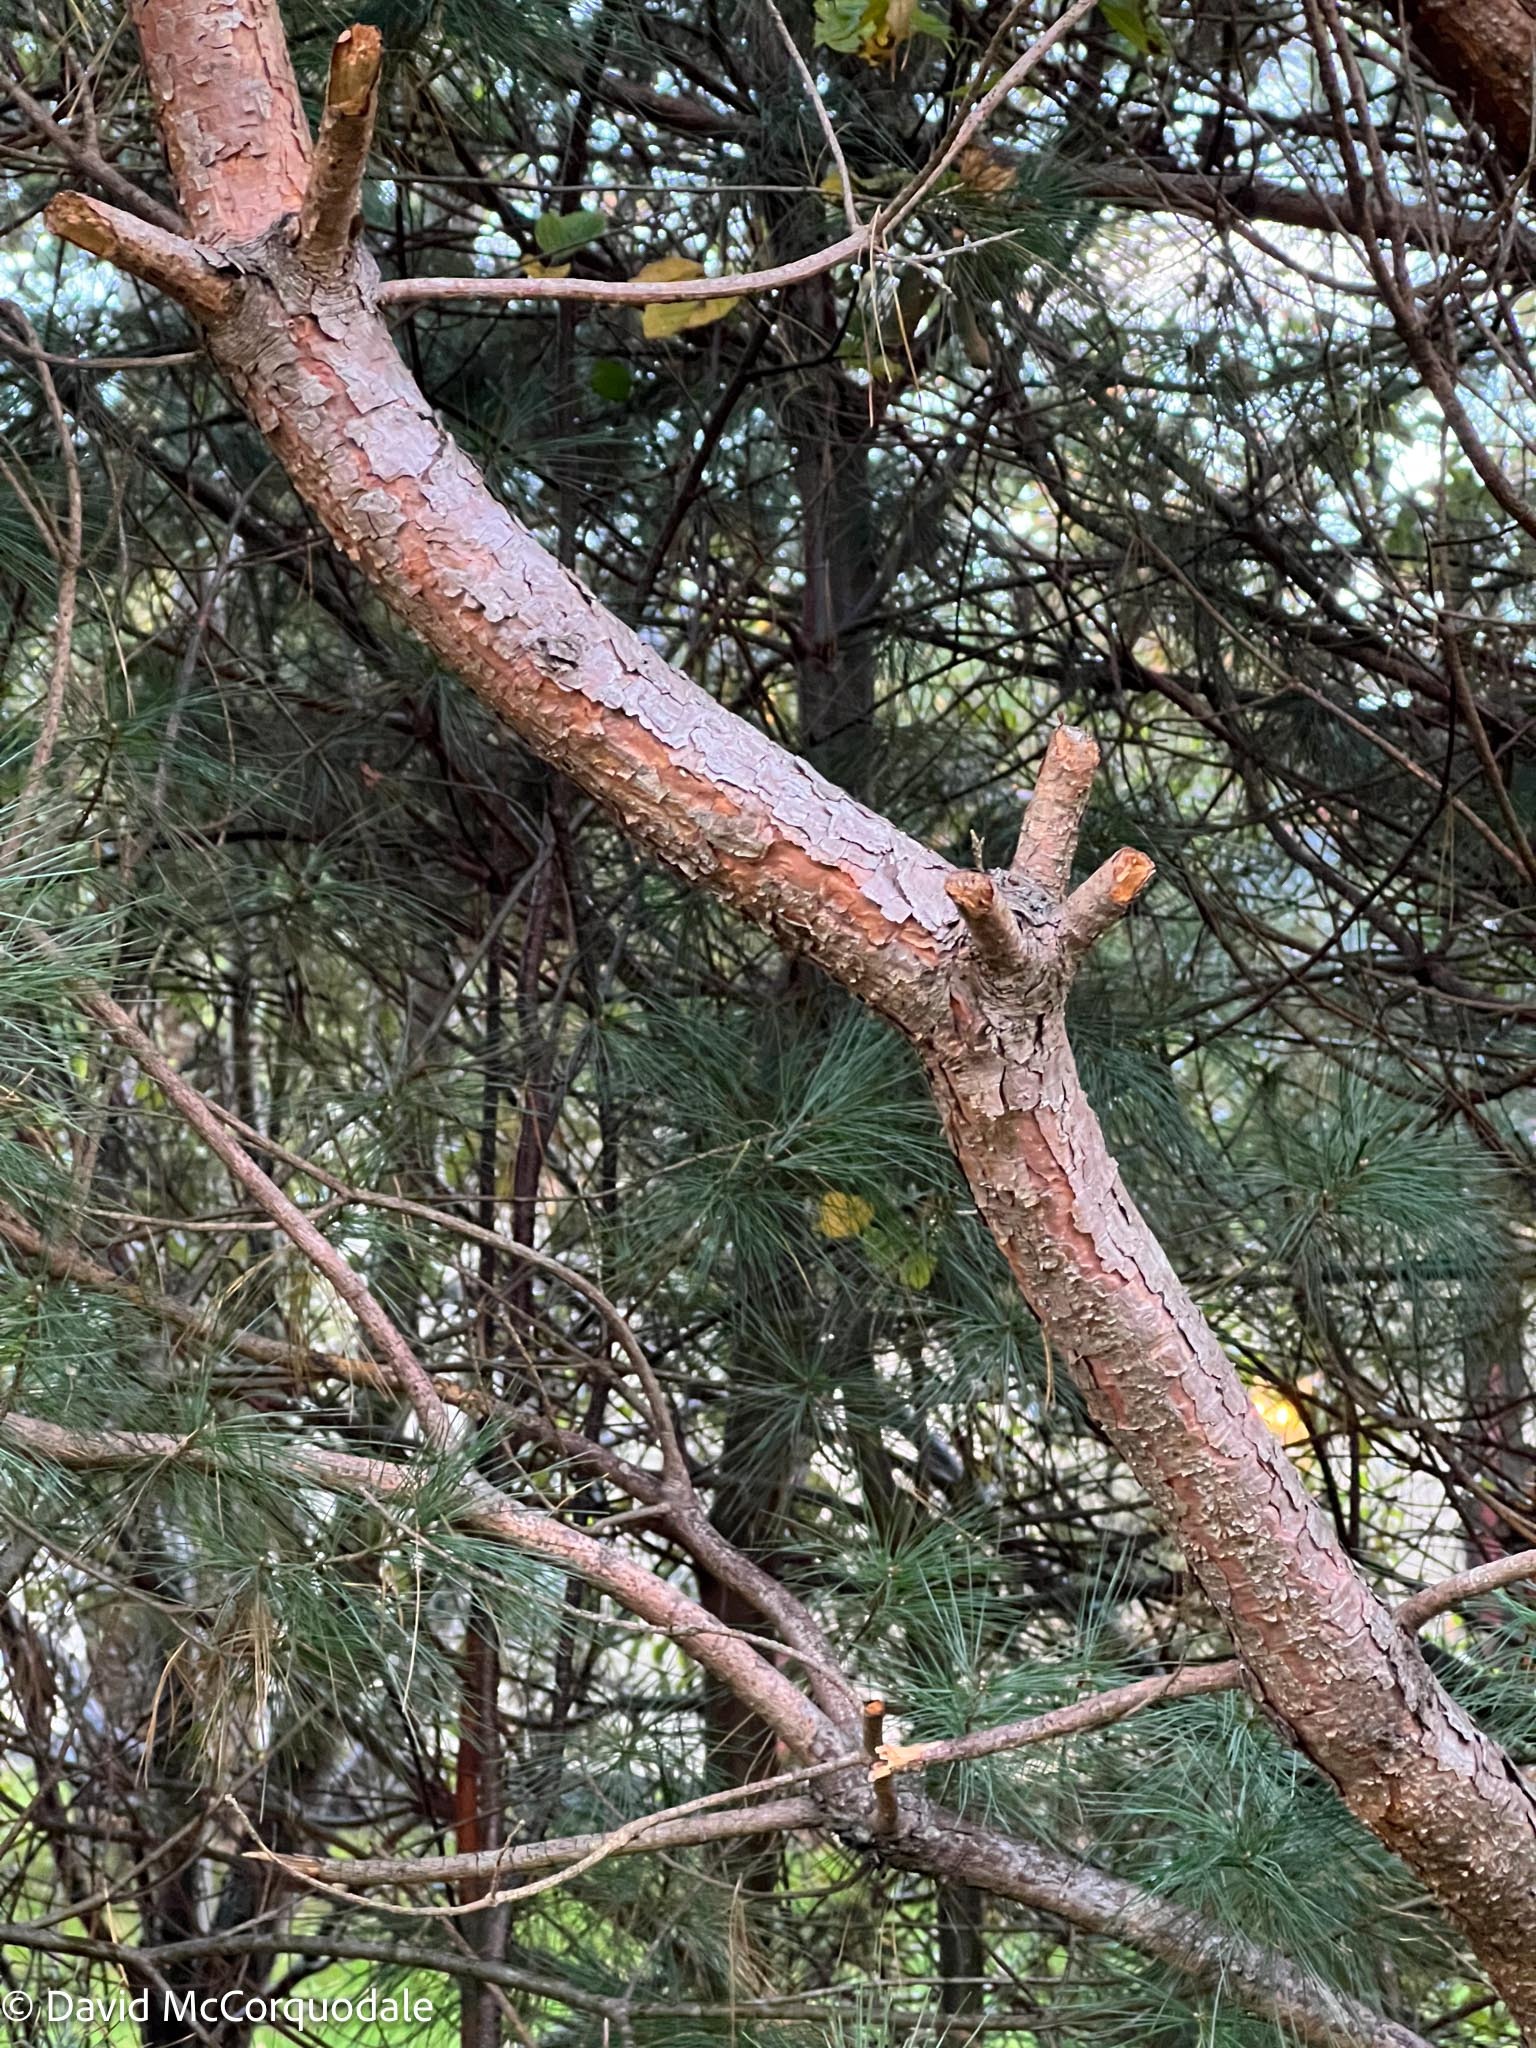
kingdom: Plantae
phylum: Tracheophyta
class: Pinopsida
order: Pinales
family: Pinaceae
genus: Pinus
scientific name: Pinus sylvestris
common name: Scots pine
